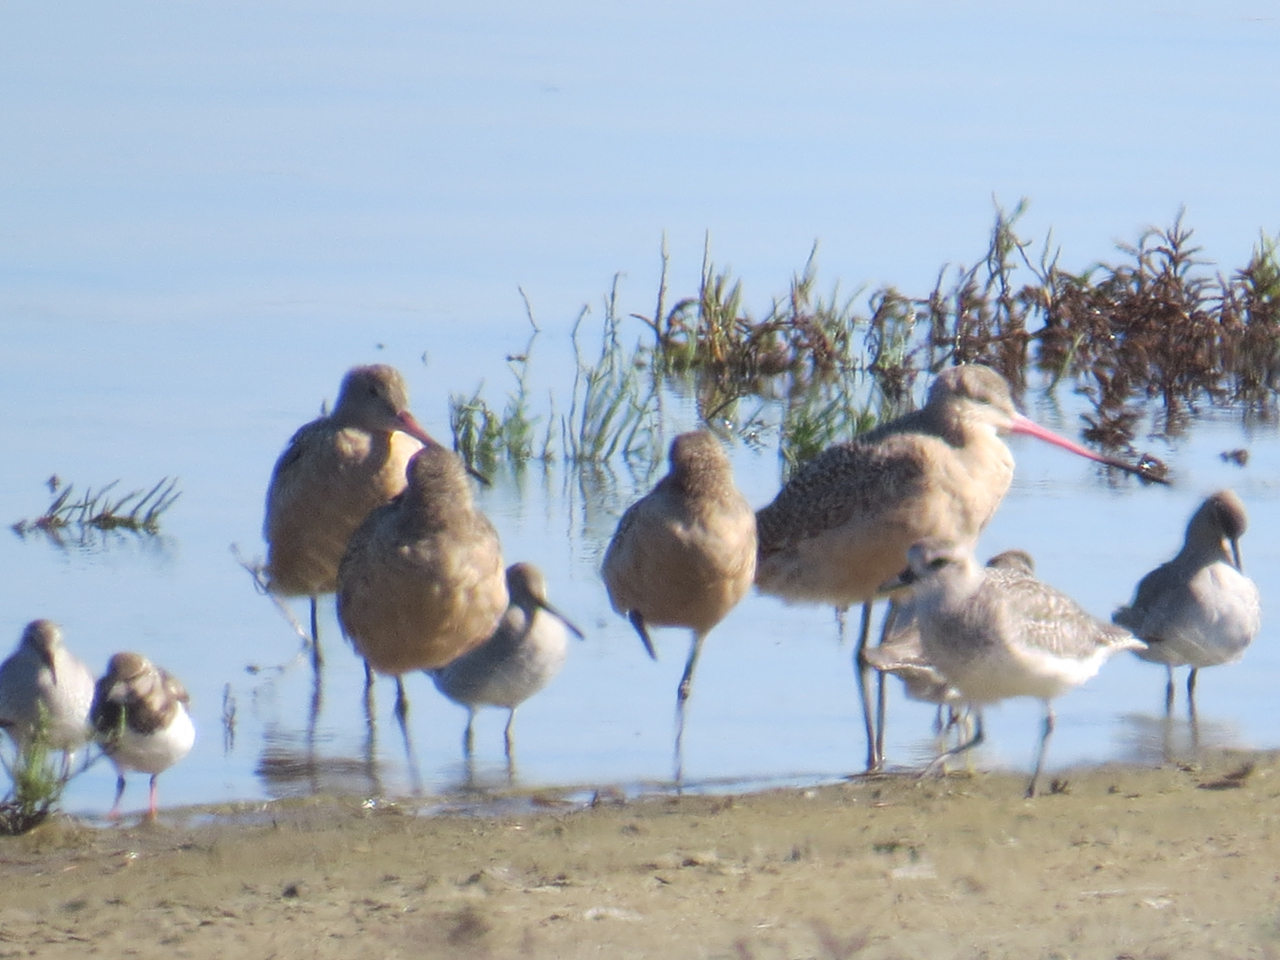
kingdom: Animalia
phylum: Chordata
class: Aves
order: Charadriiformes
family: Scolopacidae
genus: Limosa
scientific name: Limosa fedoa
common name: Marbled godwit
